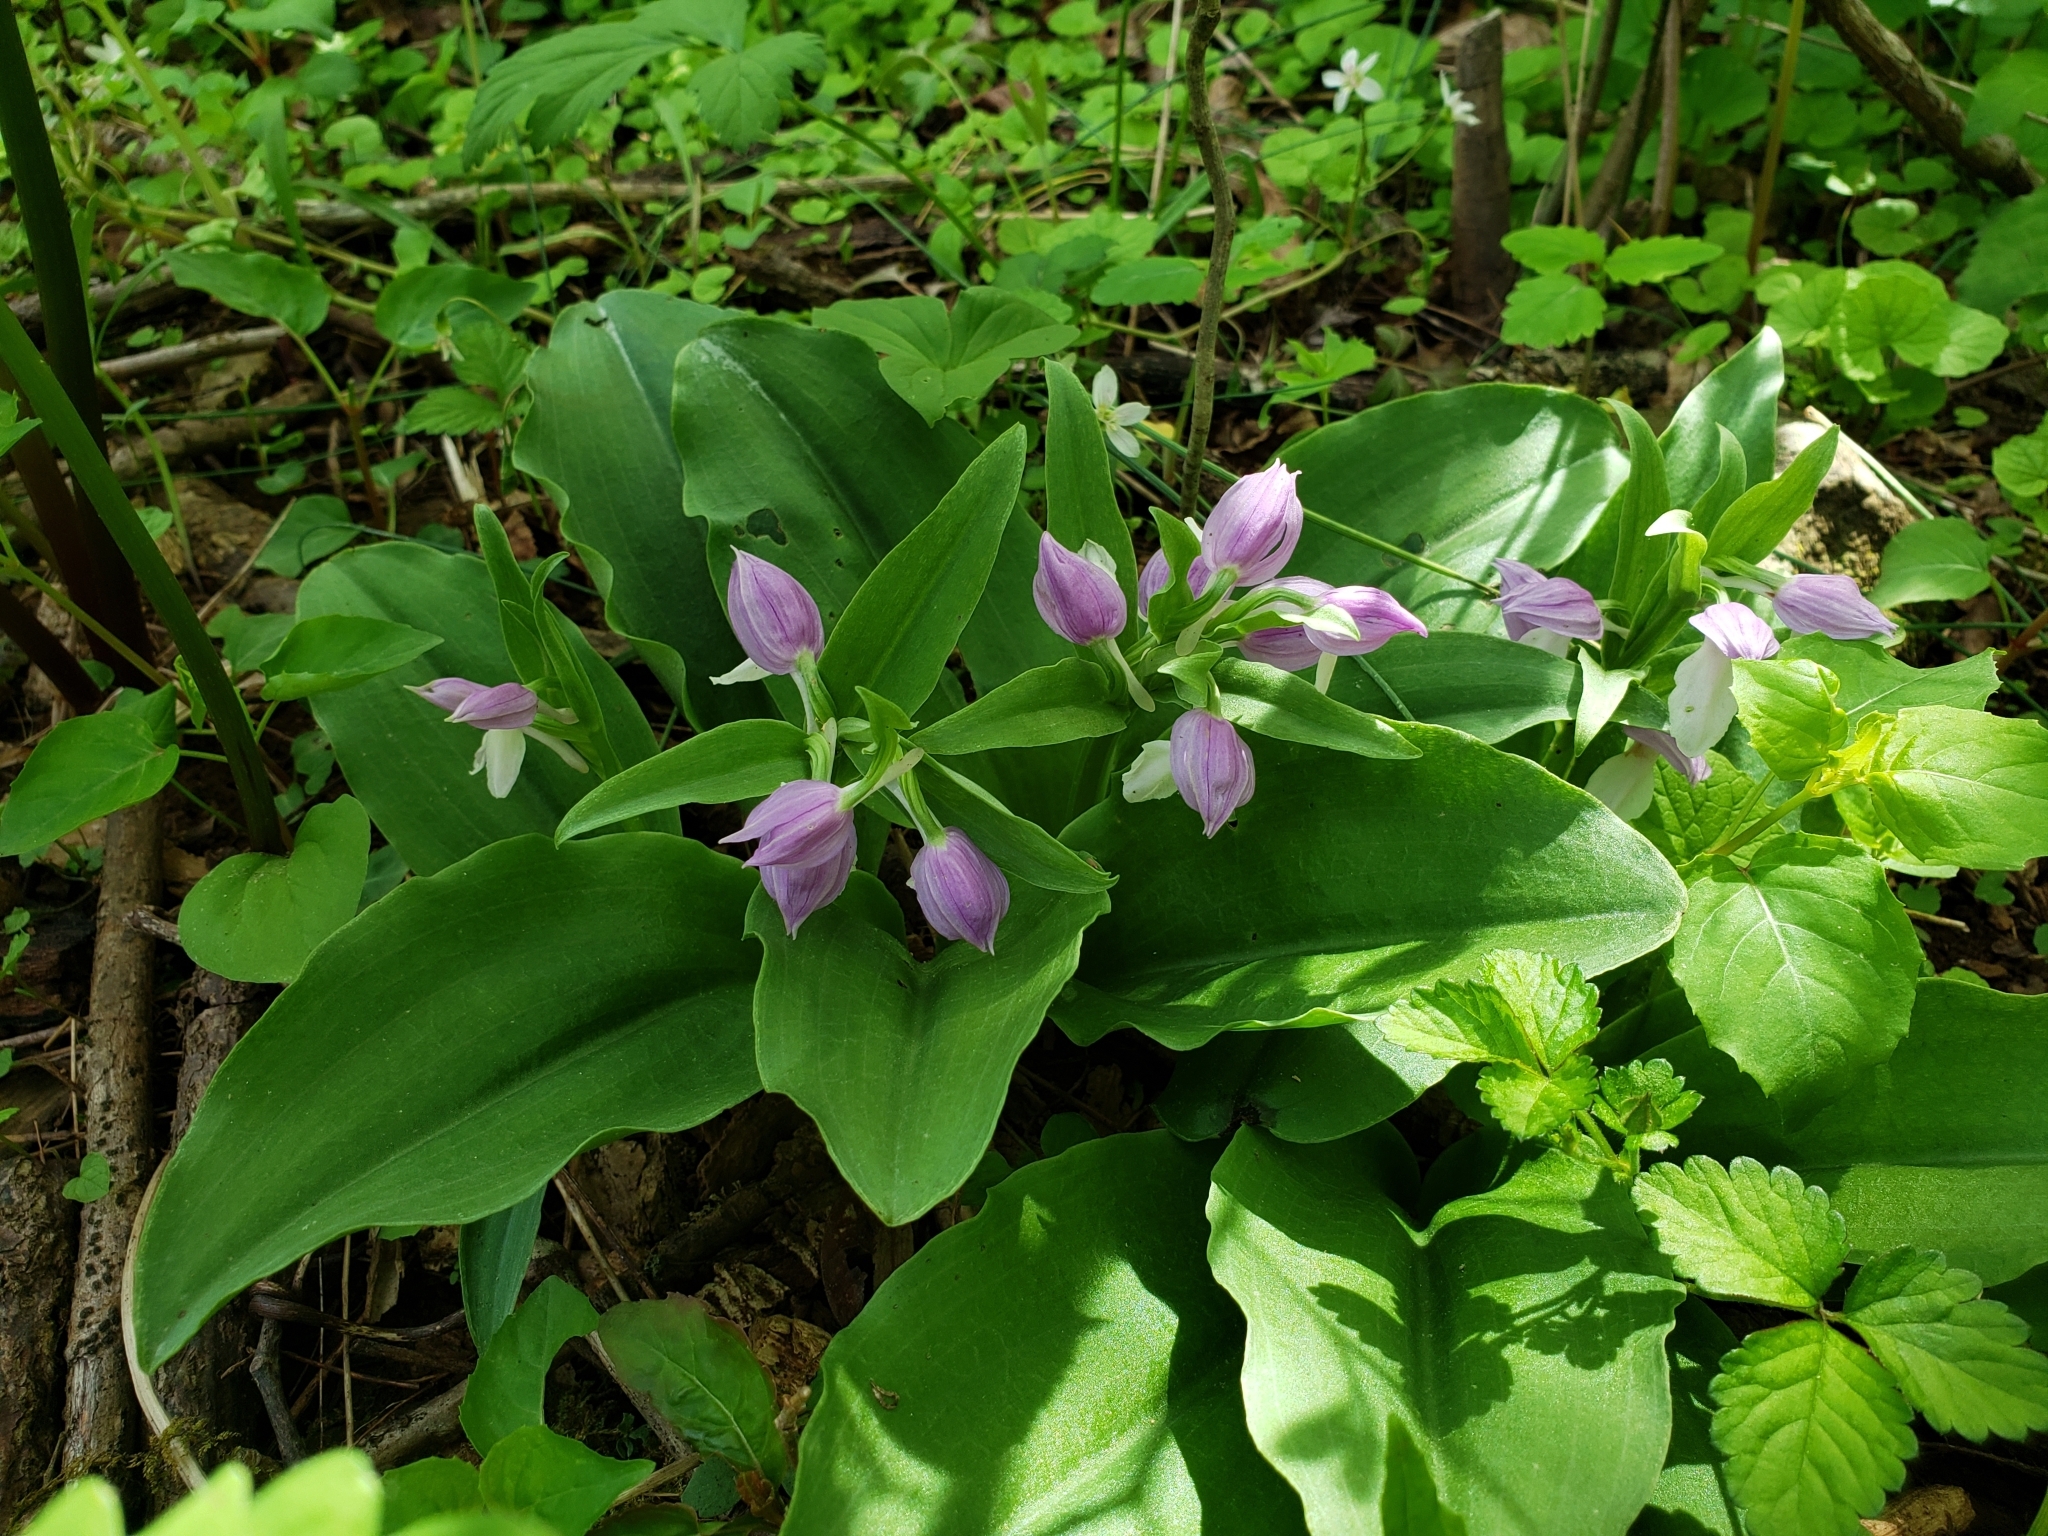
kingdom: Plantae
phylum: Tracheophyta
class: Liliopsida
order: Asparagales
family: Orchidaceae
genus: Galearis
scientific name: Galearis spectabilis
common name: Purple-hooded orchis
